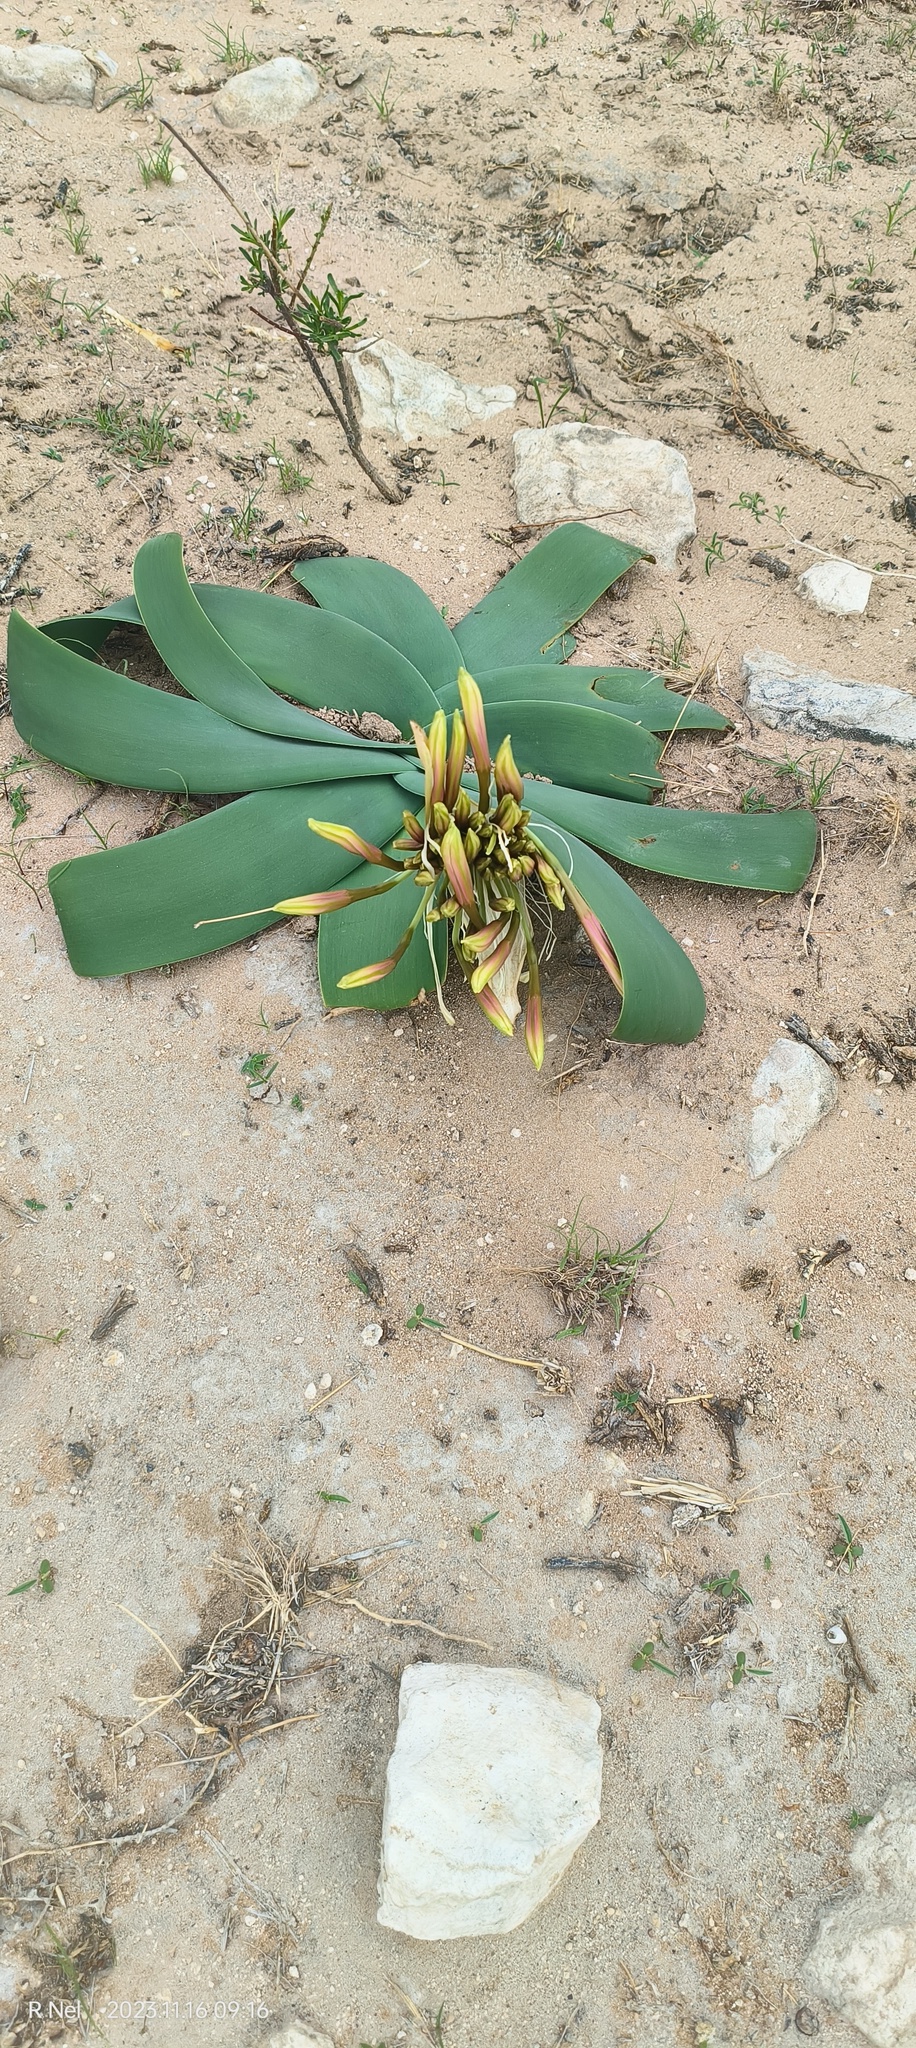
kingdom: Plantae
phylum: Tracheophyta
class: Liliopsida
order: Asparagales
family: Amaryllidaceae
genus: Ammocharis
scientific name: Ammocharis coranica
